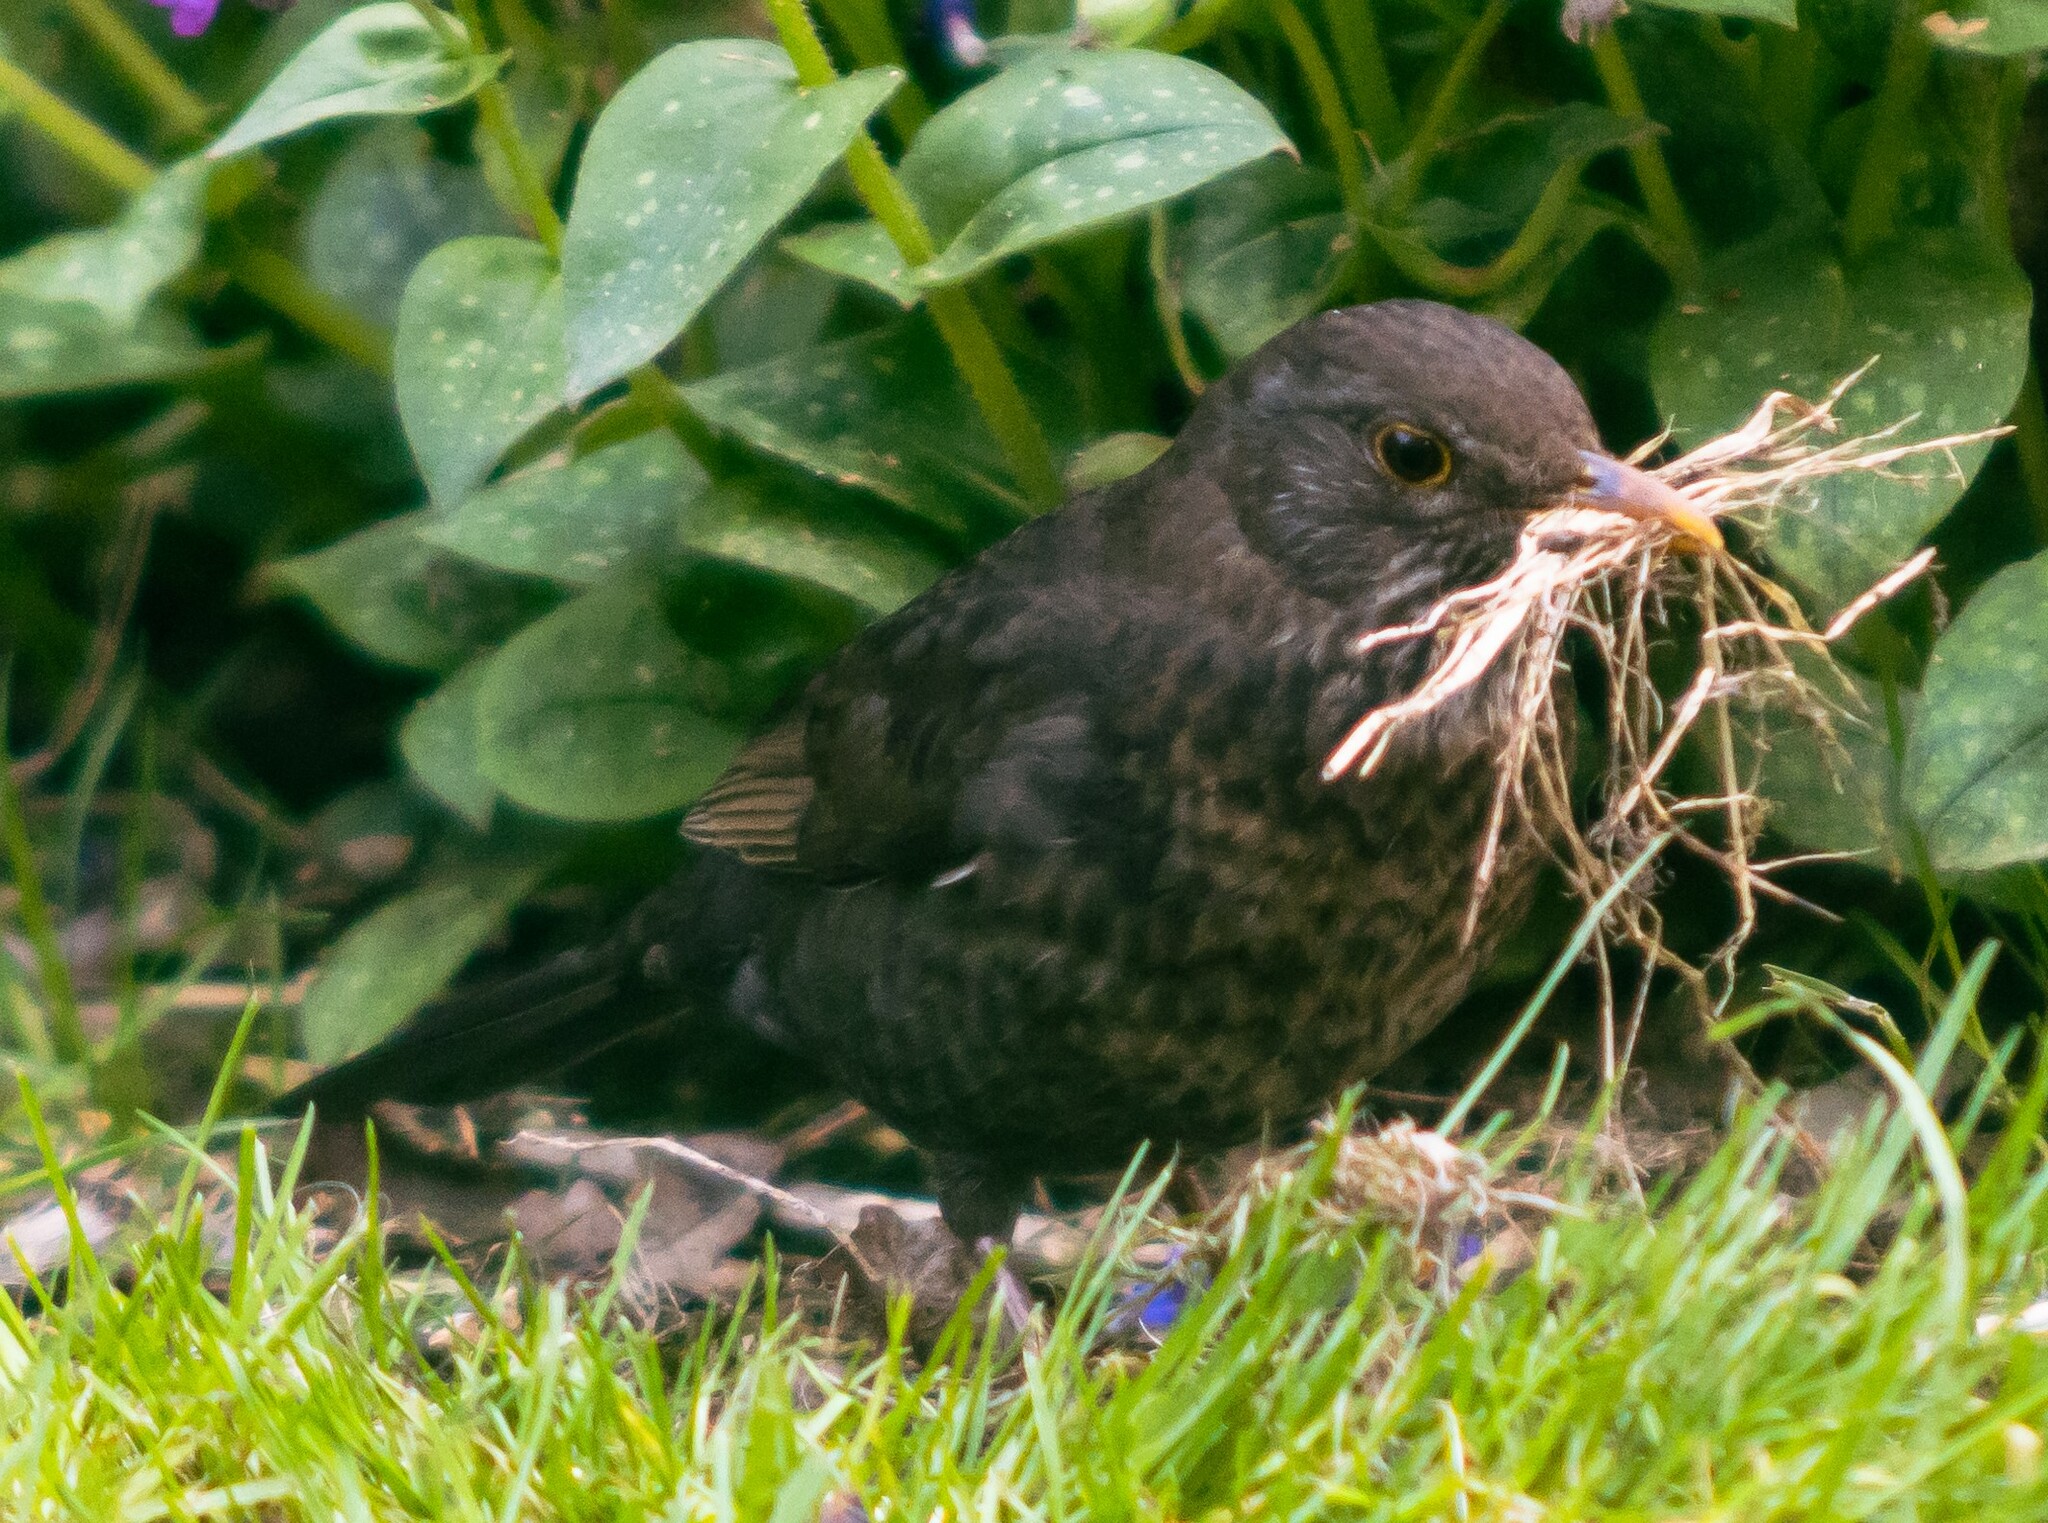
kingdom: Animalia
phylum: Chordata
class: Aves
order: Passeriformes
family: Turdidae
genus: Turdus
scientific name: Turdus merula
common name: Common blackbird
